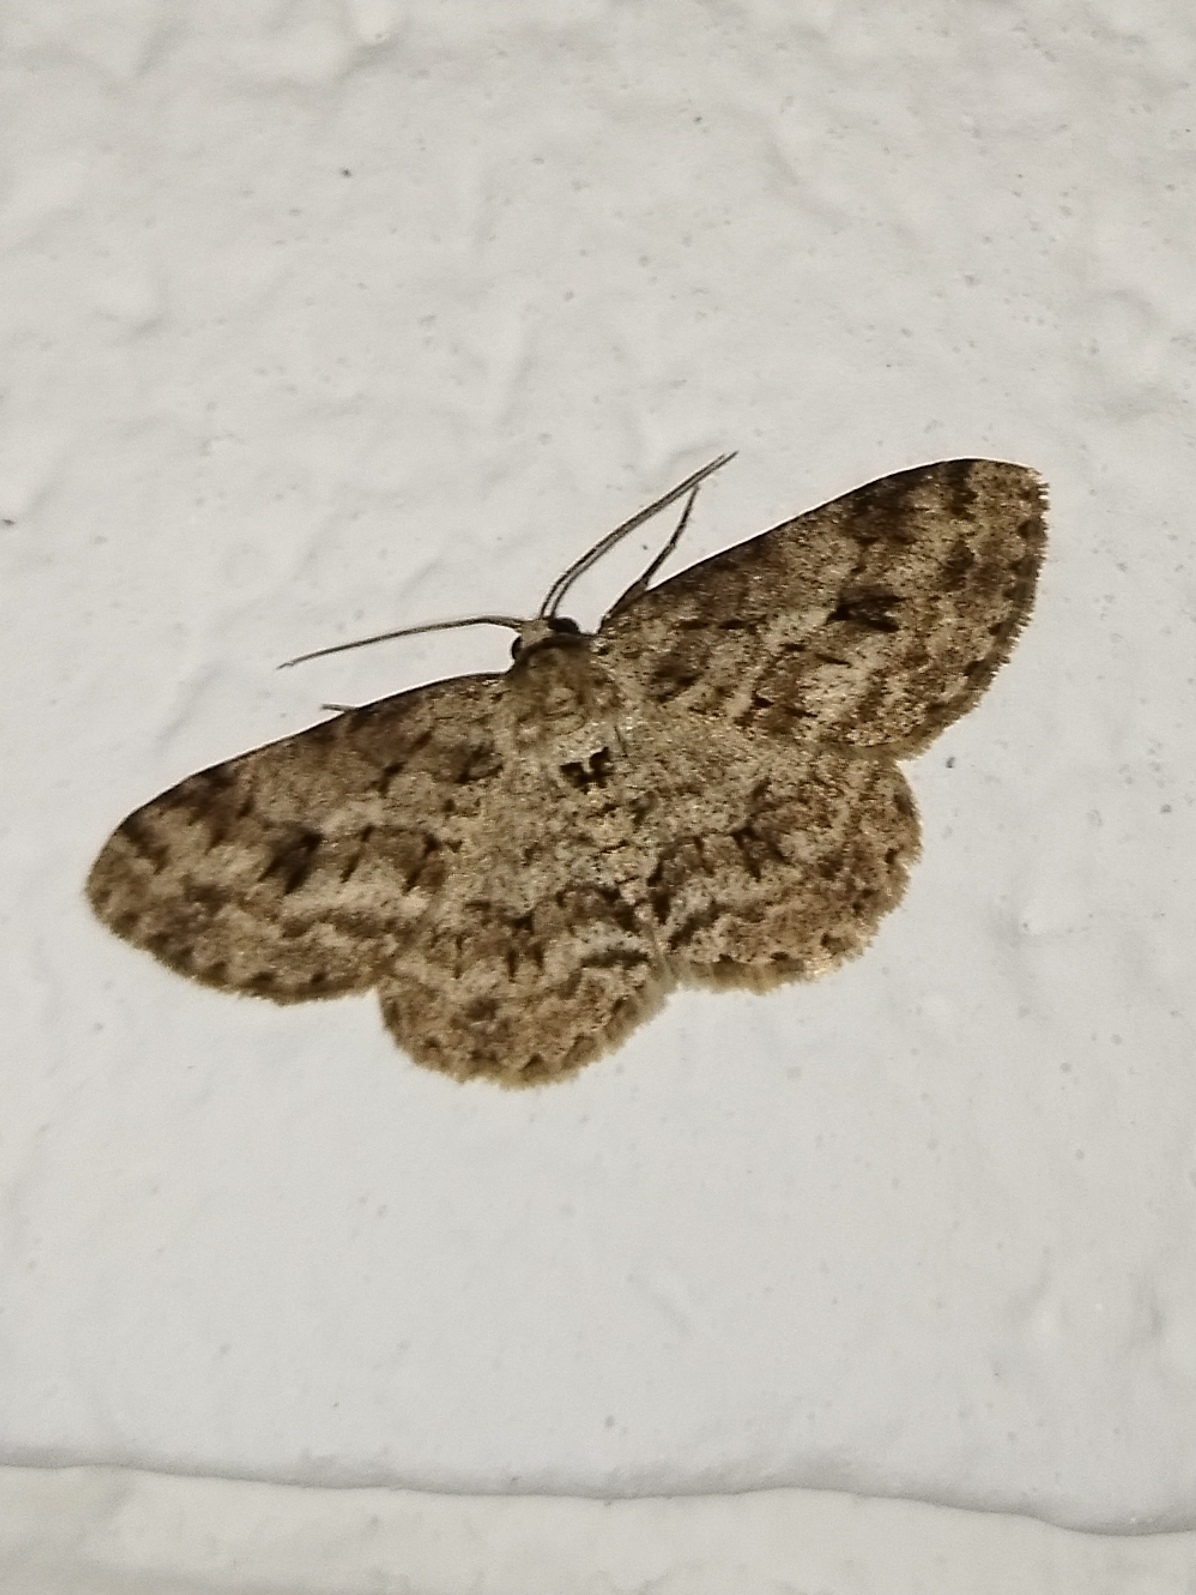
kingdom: Animalia
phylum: Arthropoda
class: Insecta
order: Lepidoptera
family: Geometridae
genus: Ectropis
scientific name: Ectropis crepuscularia
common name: Engrailed
